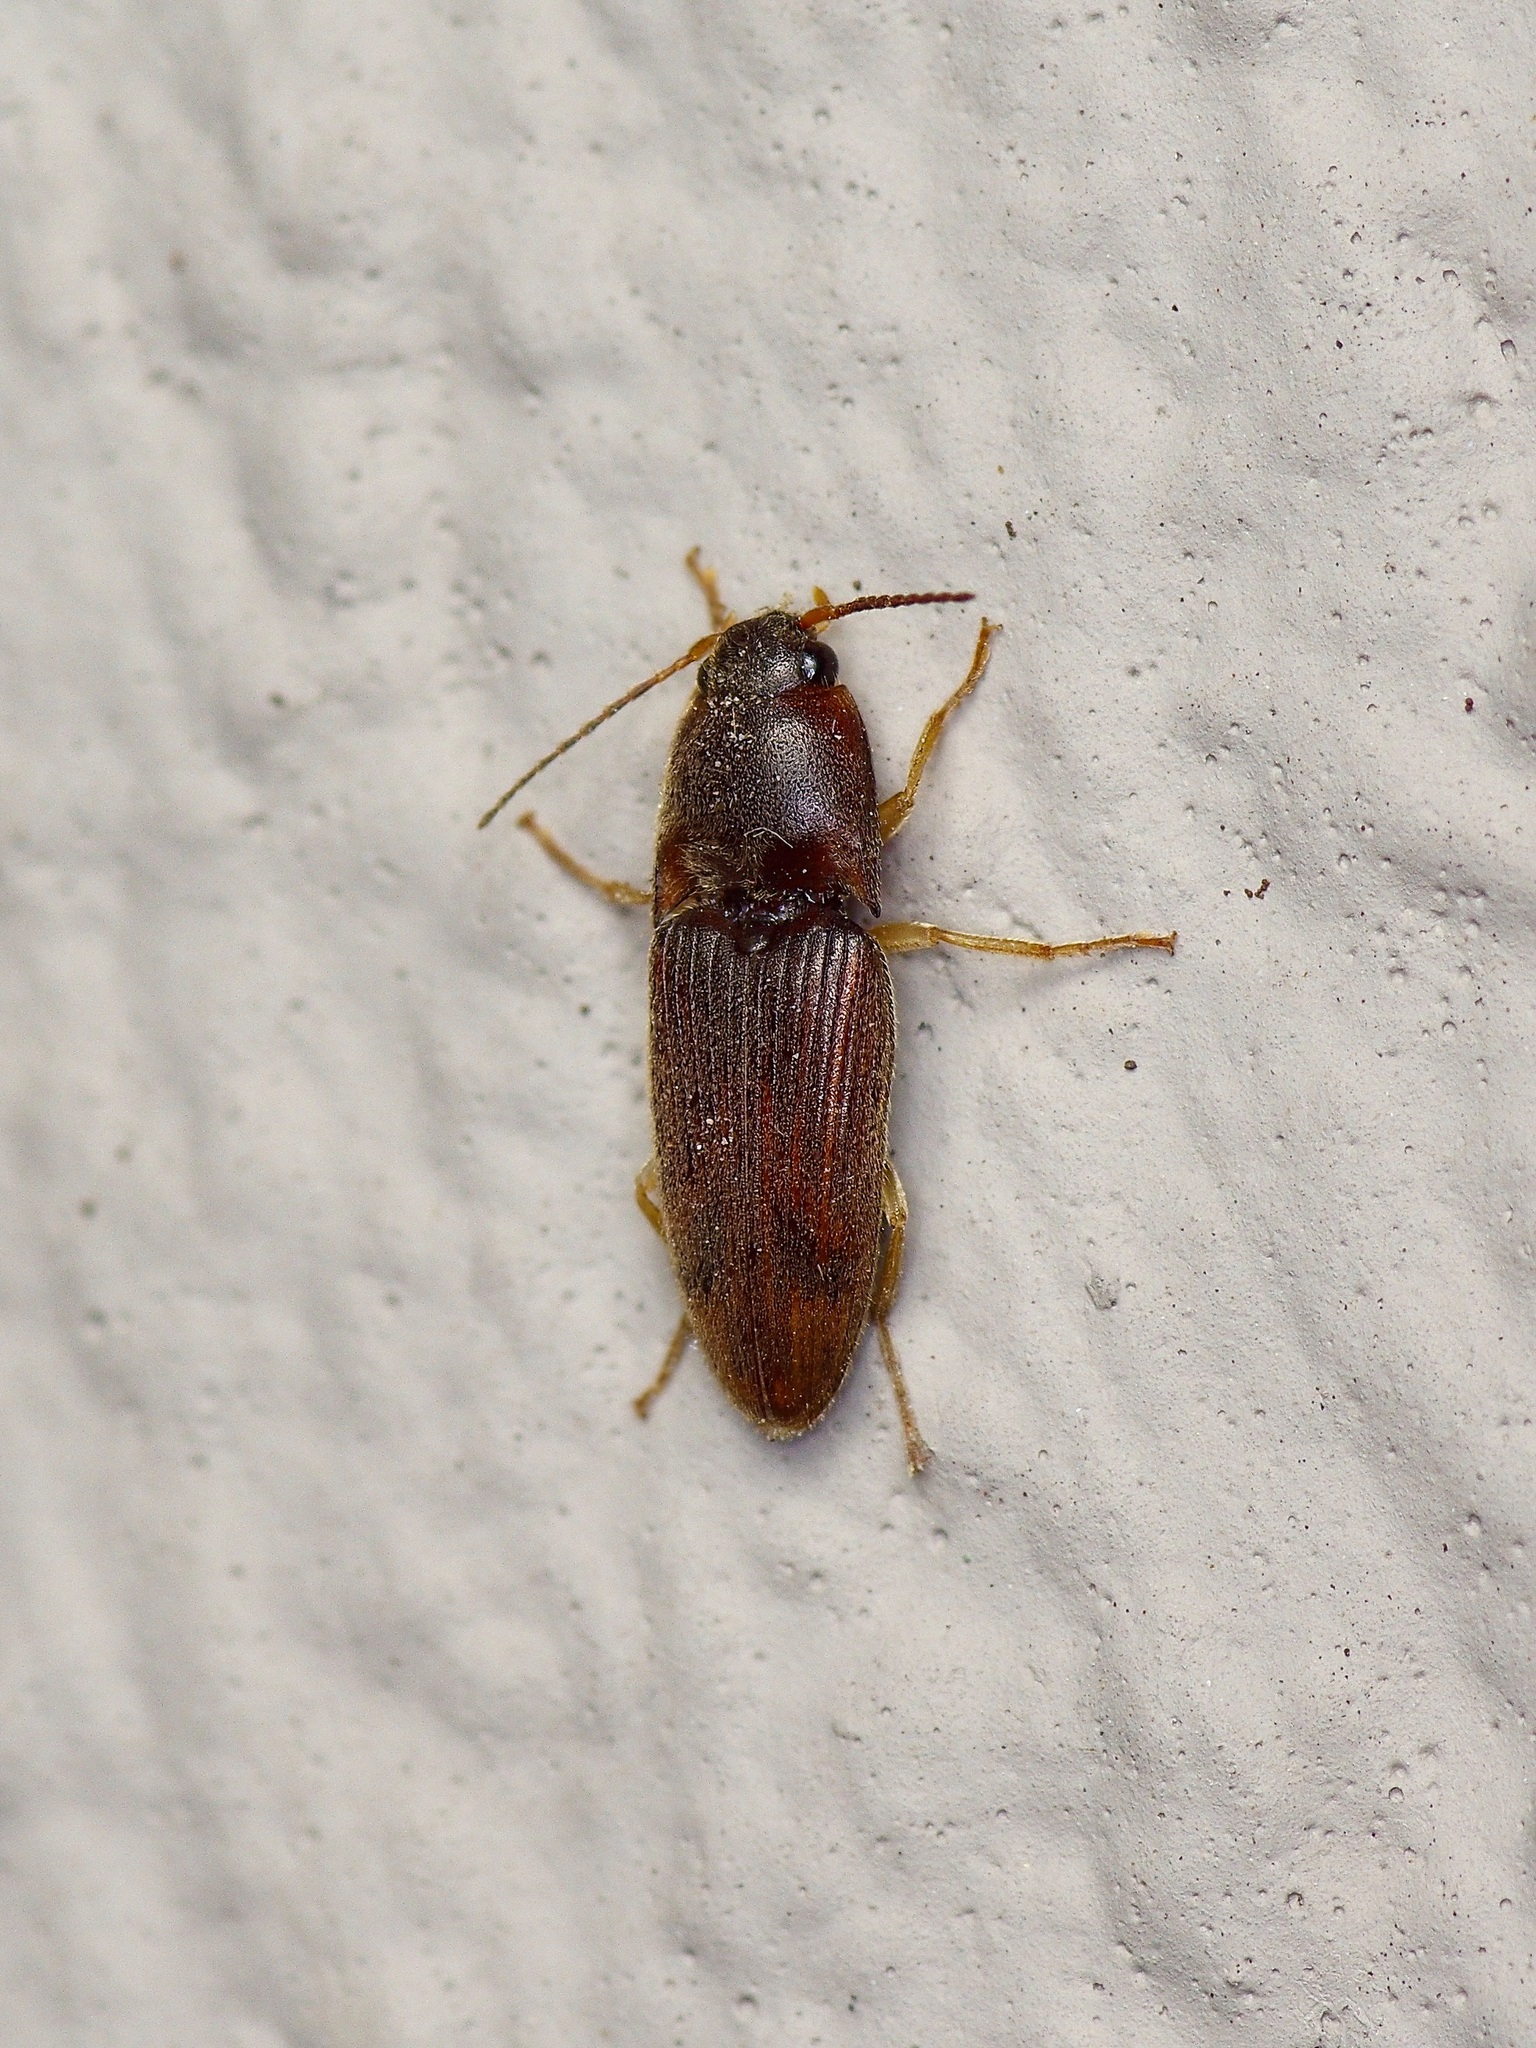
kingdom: Animalia
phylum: Arthropoda
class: Insecta
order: Coleoptera
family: Elateridae
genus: Monocrepidius
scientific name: Monocrepidius
